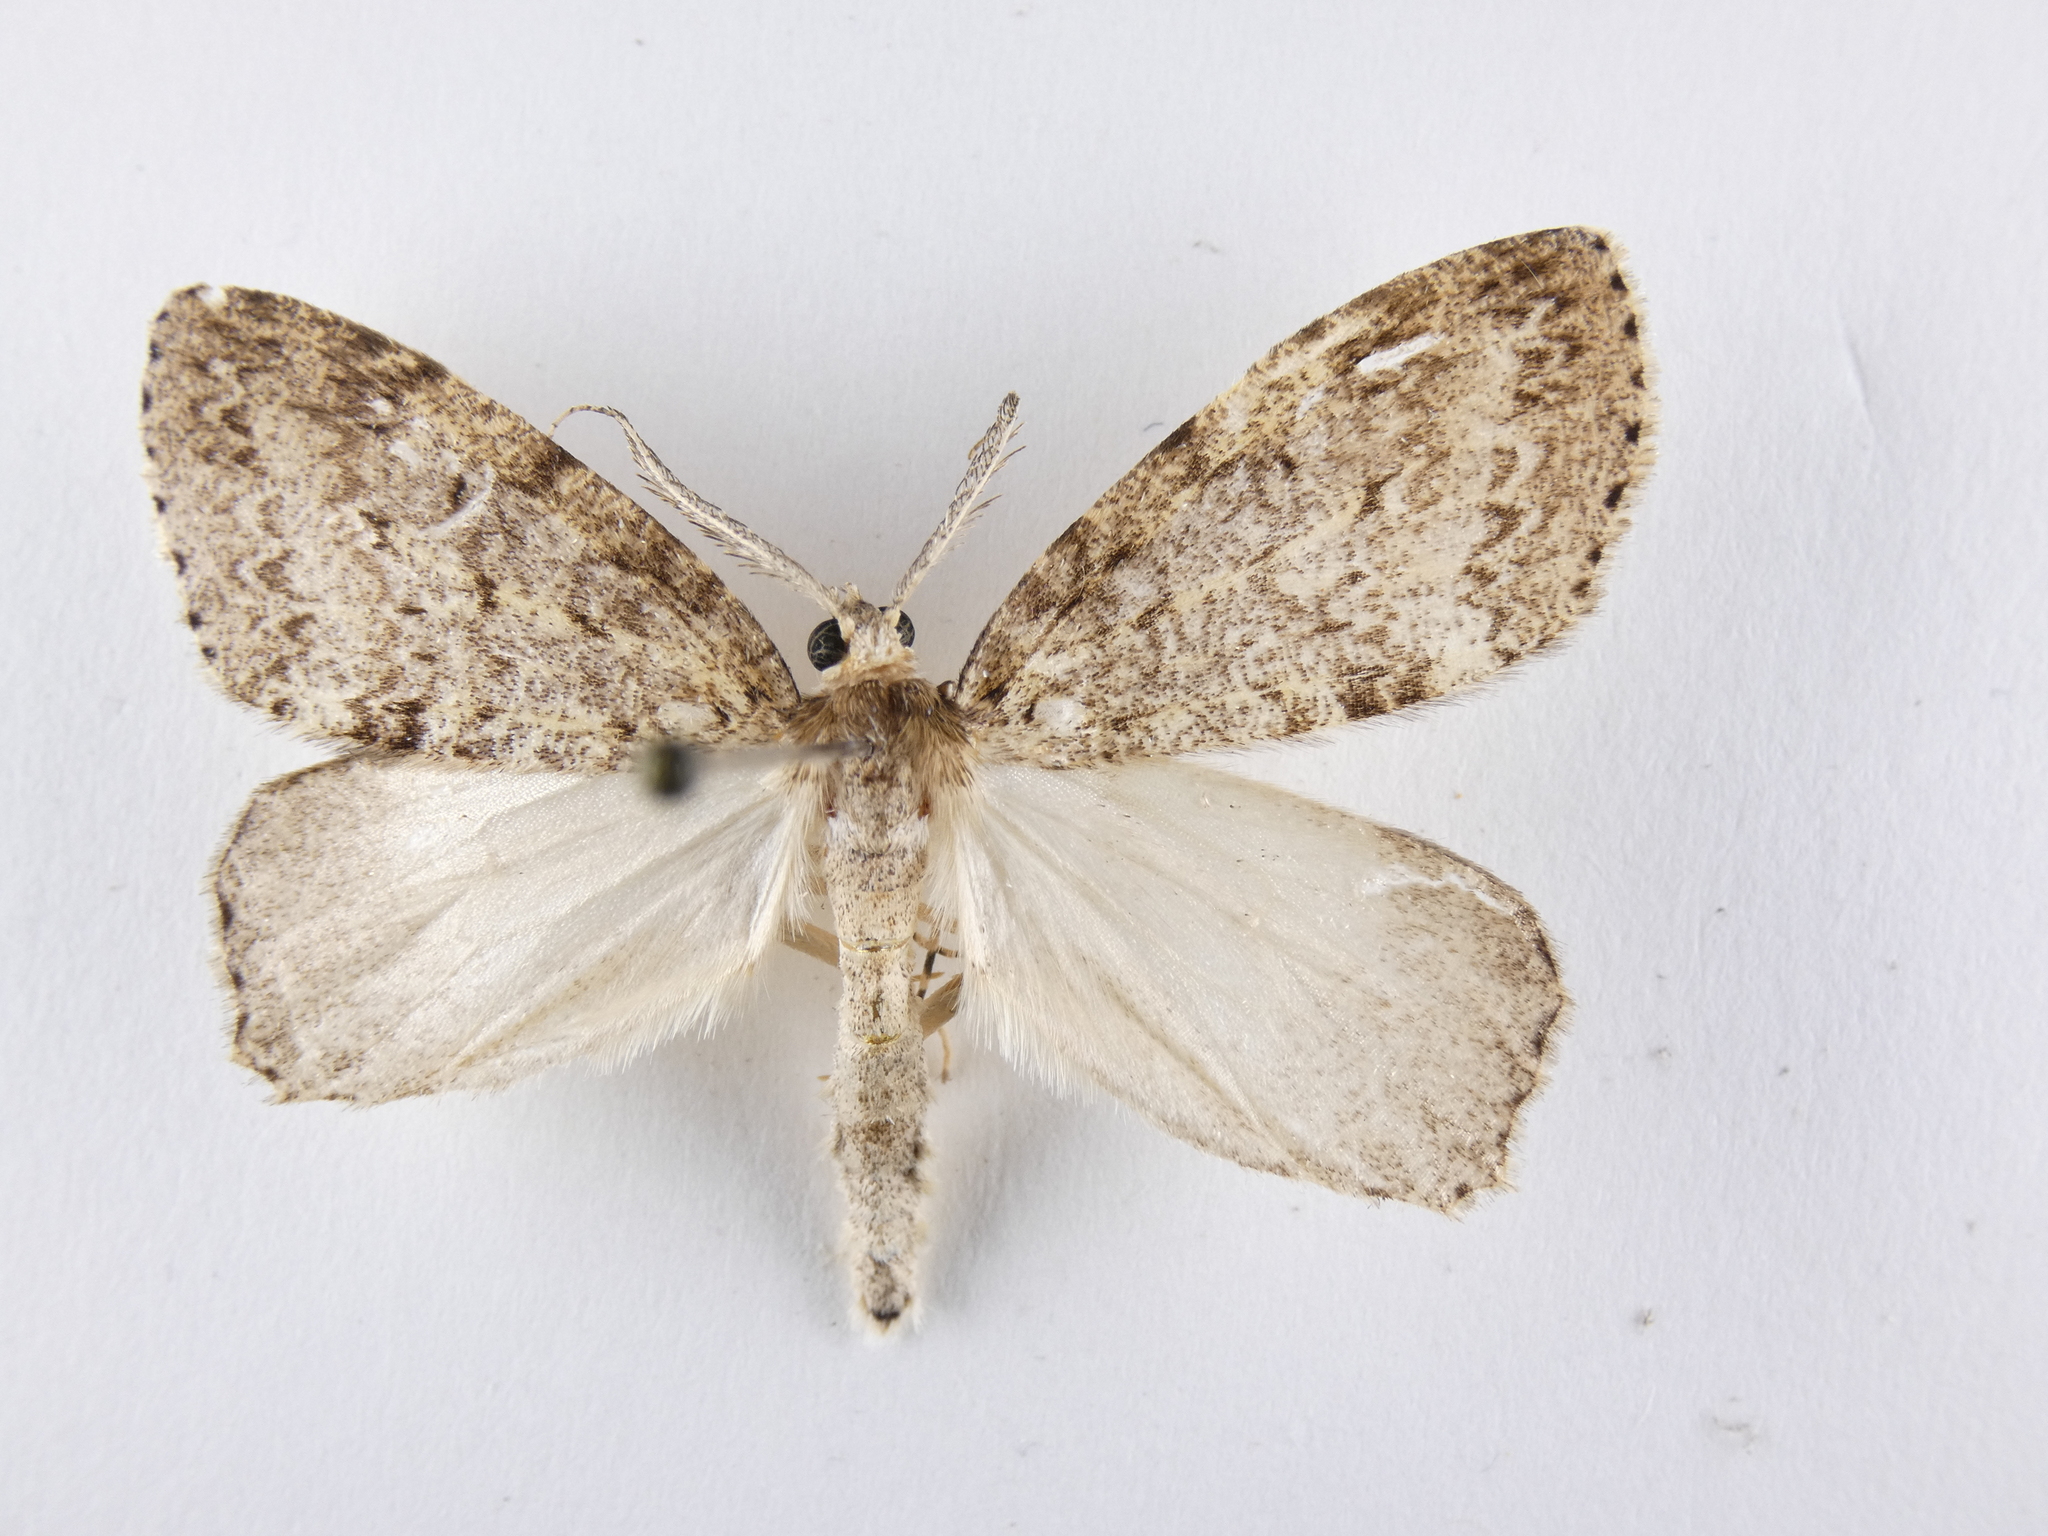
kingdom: Animalia
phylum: Arthropoda
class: Insecta
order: Lepidoptera
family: Geometridae
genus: Pseudocoremia
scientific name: Pseudocoremia fenerata
